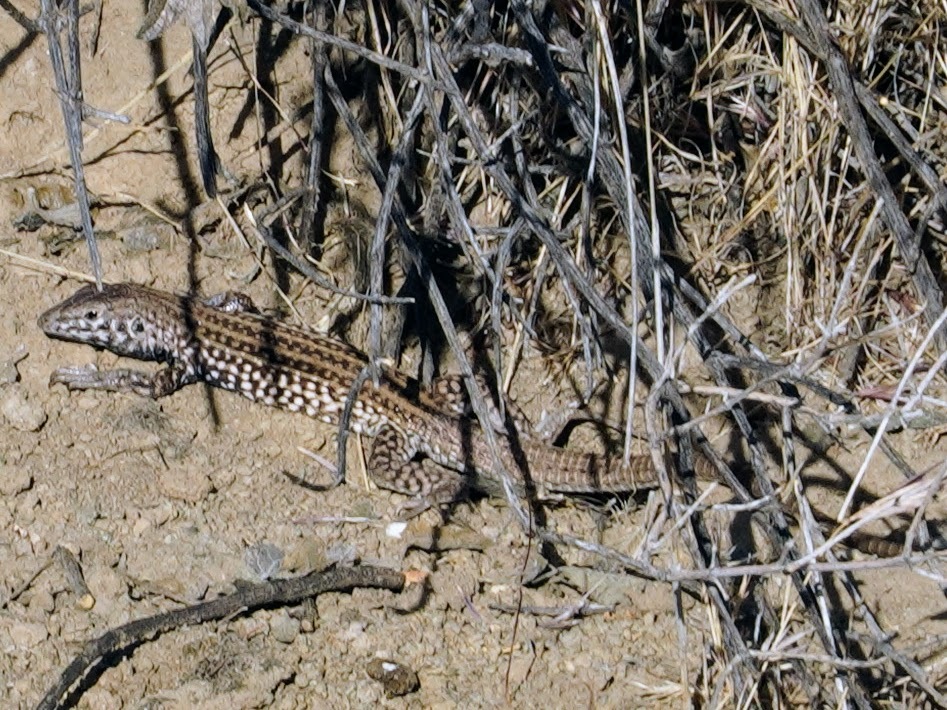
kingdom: Animalia
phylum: Chordata
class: Squamata
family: Teiidae
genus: Aspidoscelis
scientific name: Aspidoscelis tigris
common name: Tiger whiptail
